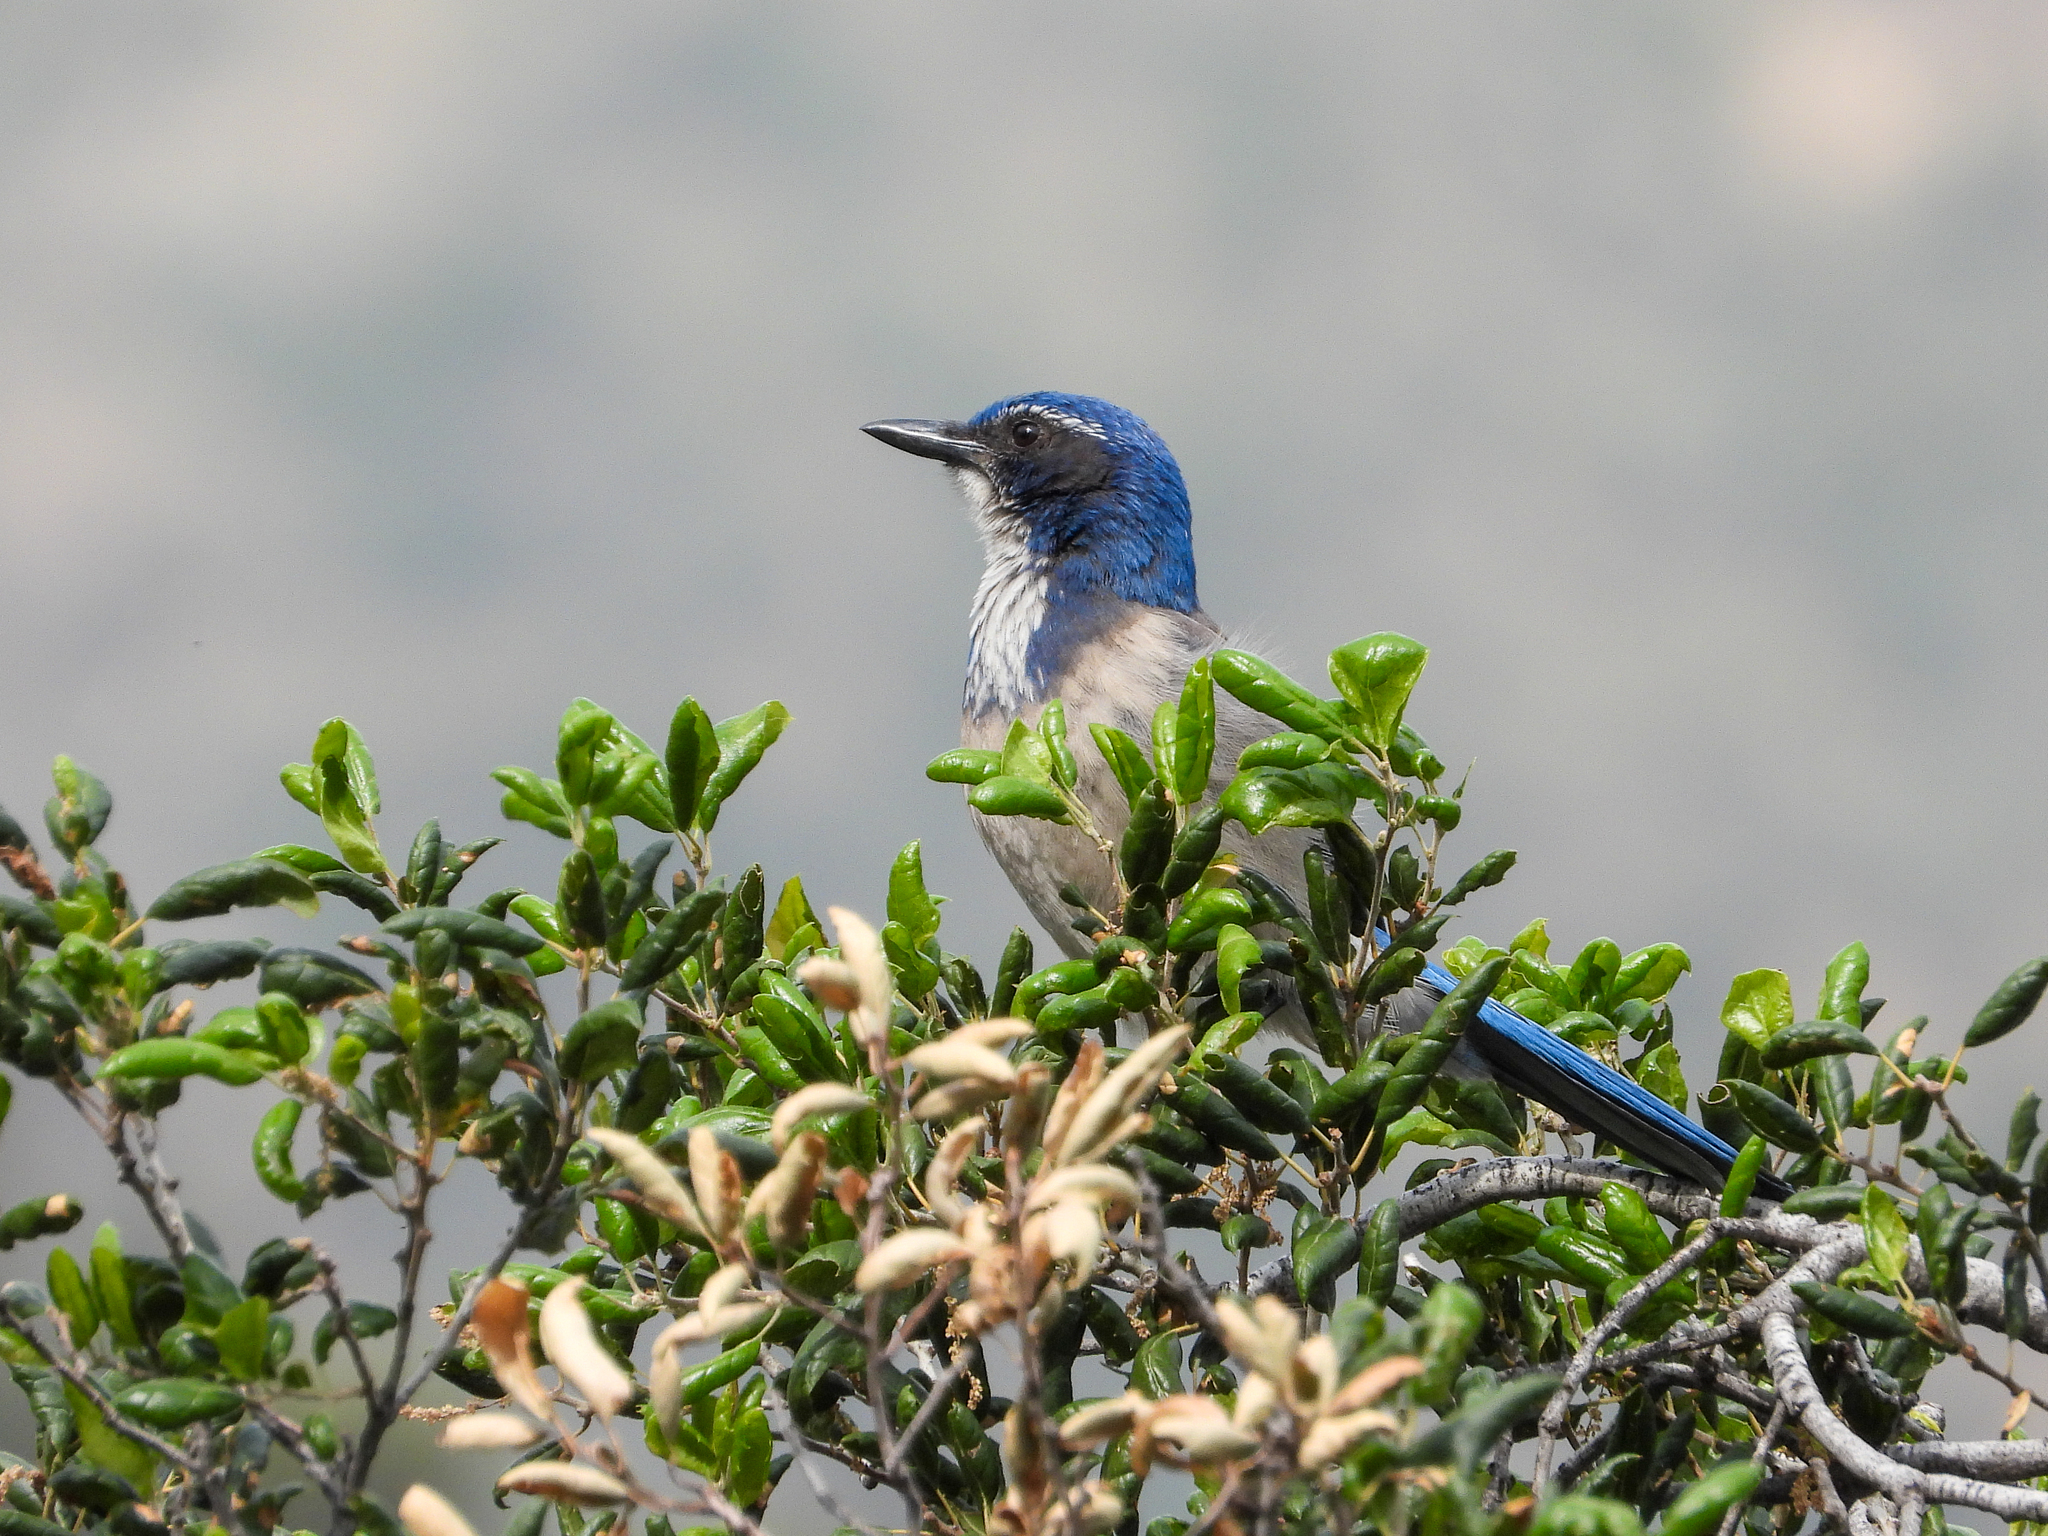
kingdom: Animalia
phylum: Chordata
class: Aves
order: Passeriformes
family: Corvidae
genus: Aphelocoma
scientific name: Aphelocoma californica
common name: California scrub-jay
